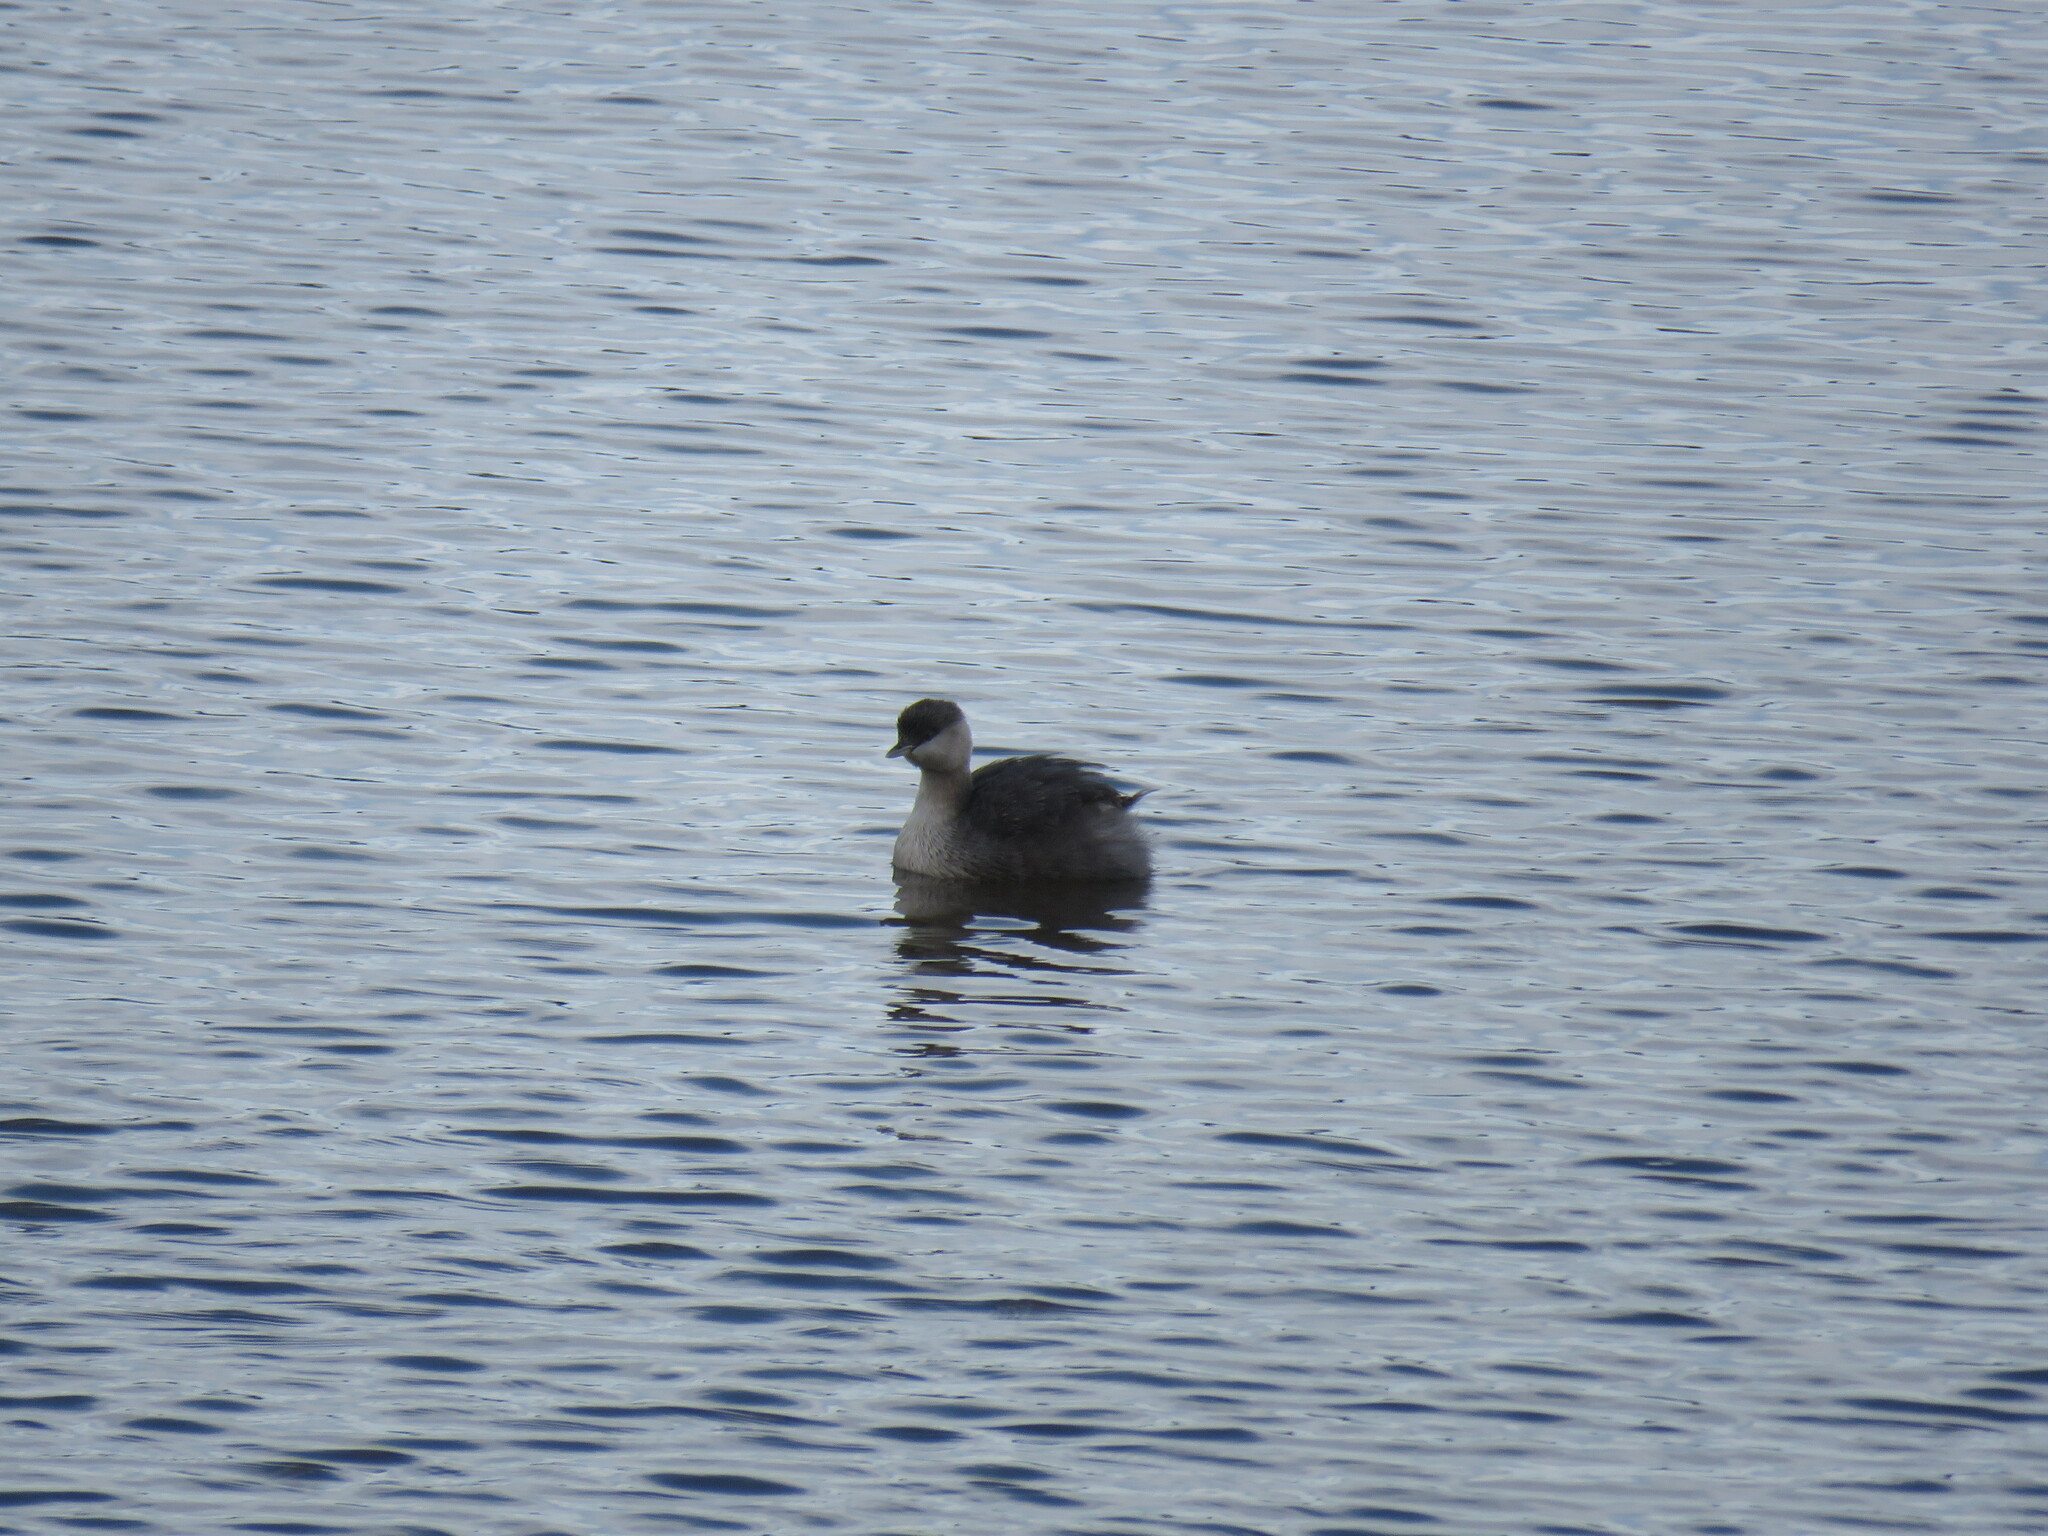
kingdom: Animalia
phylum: Chordata
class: Aves
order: Podicipediformes
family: Podicipedidae
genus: Poliocephalus
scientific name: Poliocephalus poliocephalus
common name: Hoary-headed grebe
